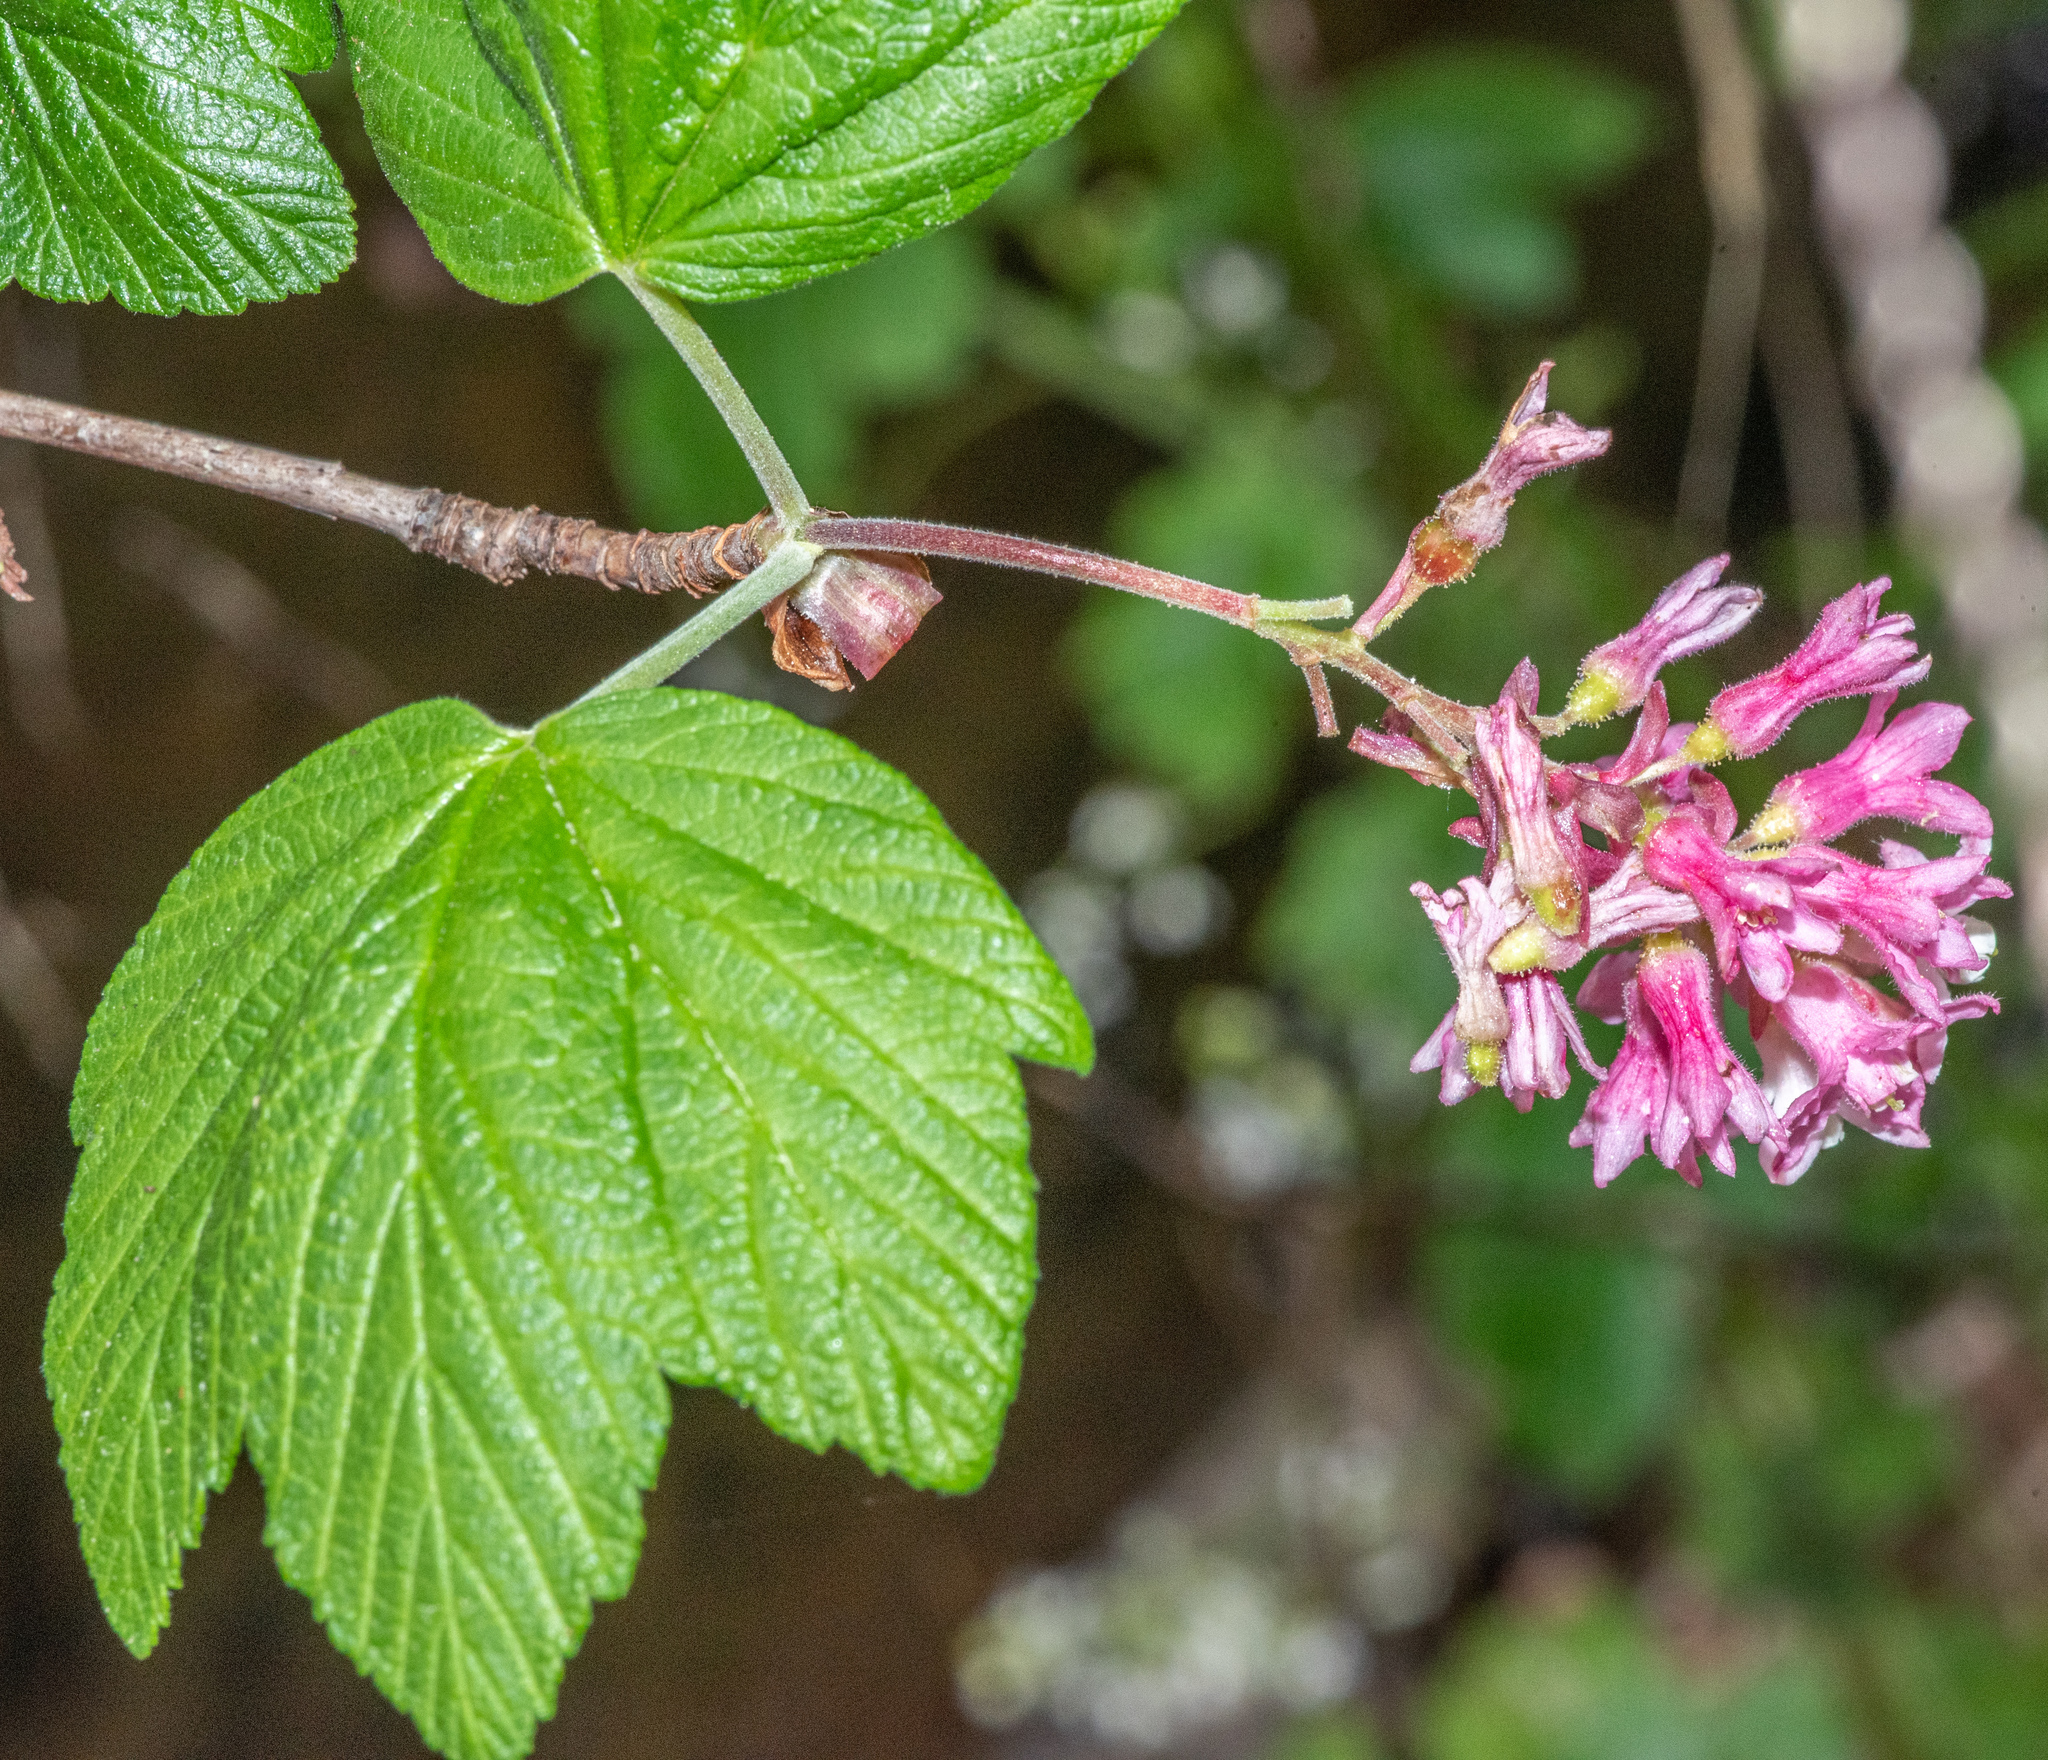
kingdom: Plantae
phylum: Tracheophyta
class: Magnoliopsida
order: Saxifragales
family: Grossulariaceae
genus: Ribes
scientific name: Ribes sanguineum
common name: Flowering currant
